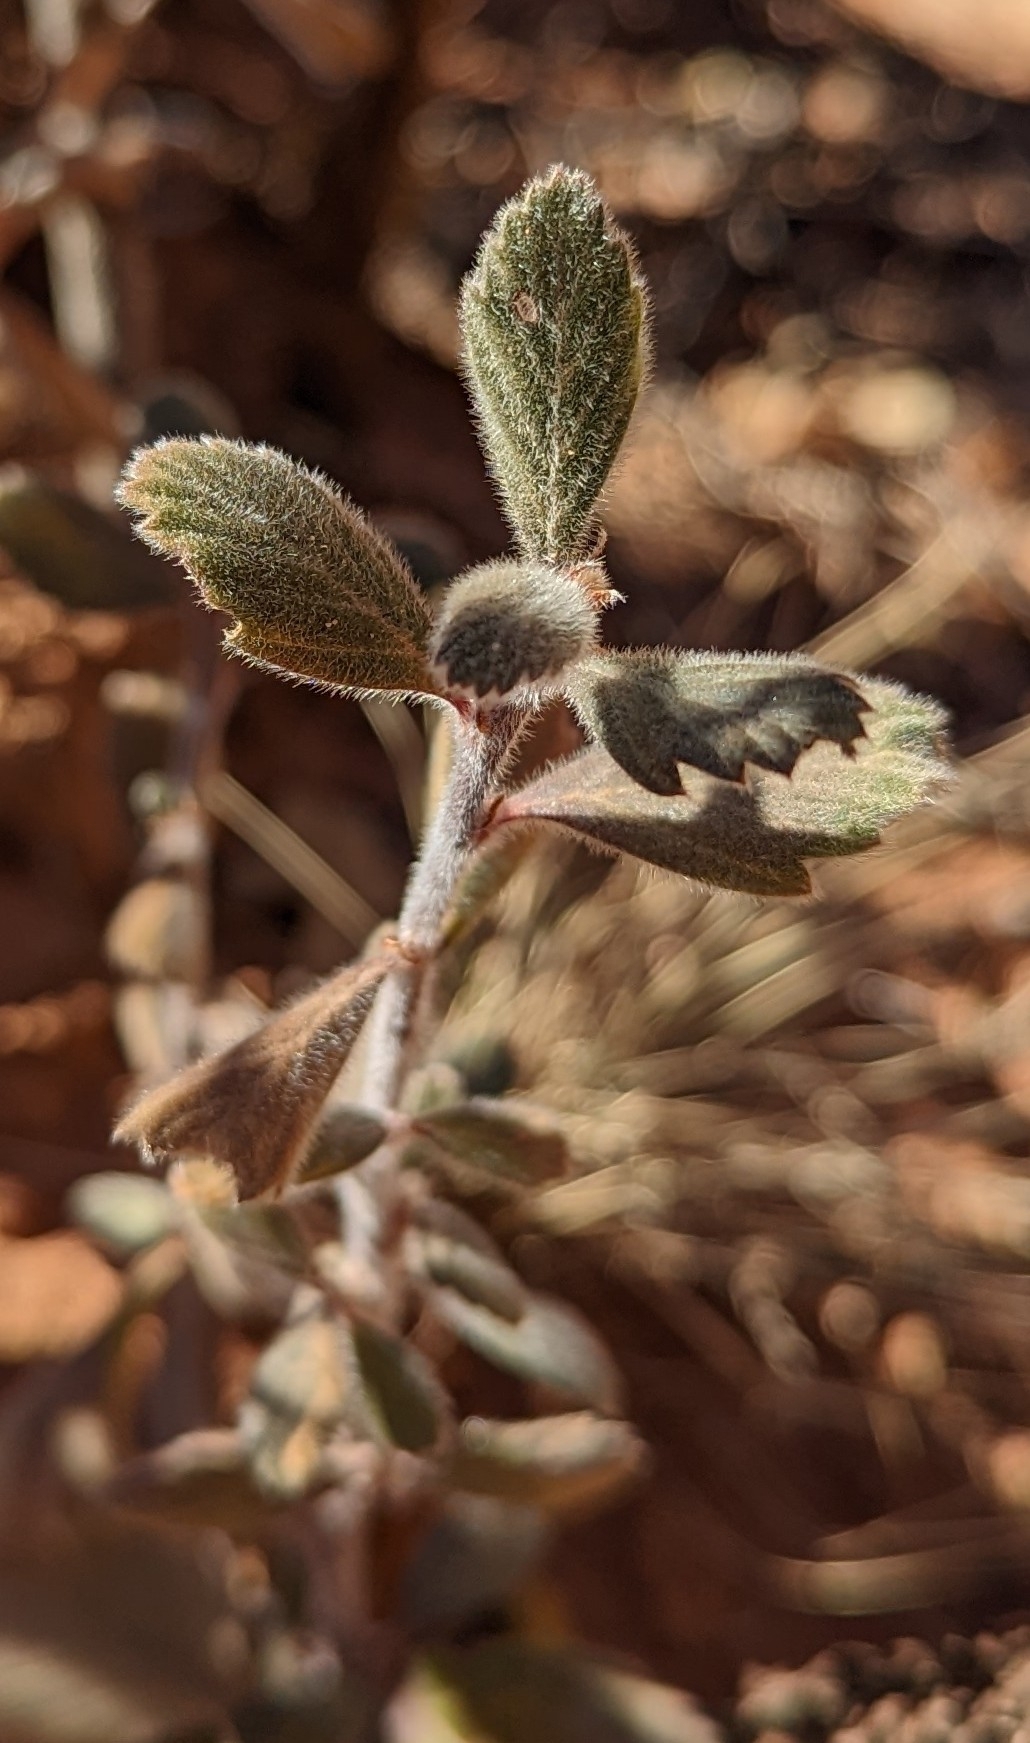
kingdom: Plantae
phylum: Tracheophyta
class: Magnoliopsida
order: Rosales
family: Rosaceae
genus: Cercocarpus
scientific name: Cercocarpus montanus
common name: Alder-leaf cercocarpus
